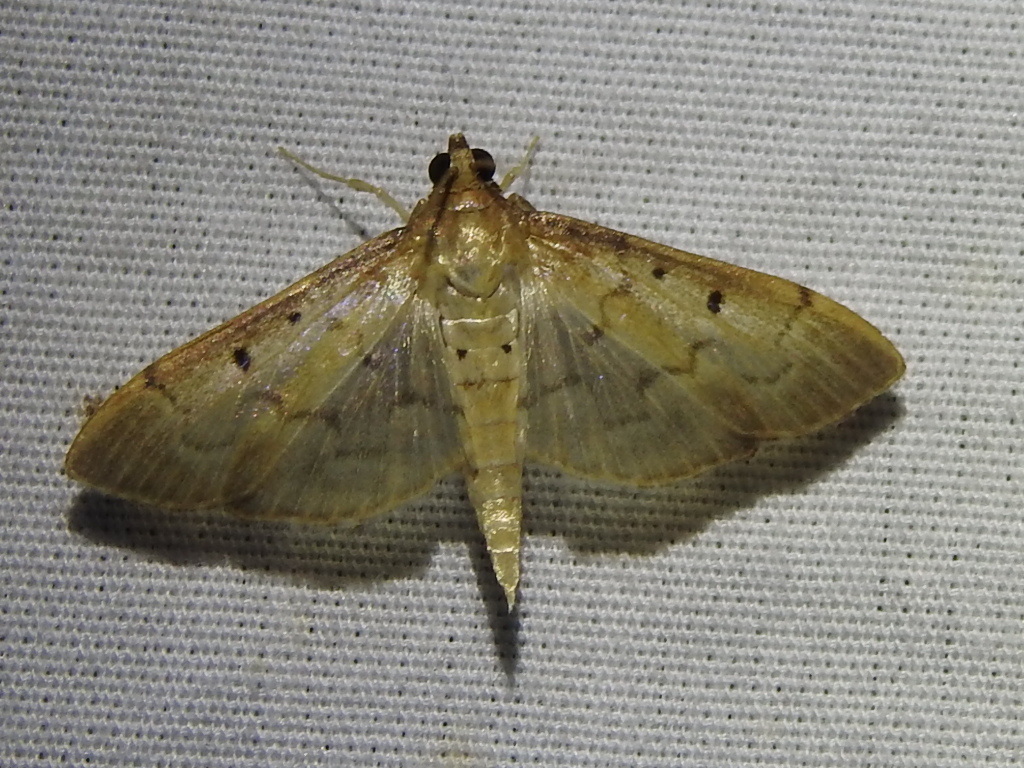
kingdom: Animalia
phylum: Arthropoda
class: Insecta
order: Lepidoptera
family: Crambidae
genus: Herpetogramma
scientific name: Herpetogramma bipunctalis
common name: Southern beet webworm
